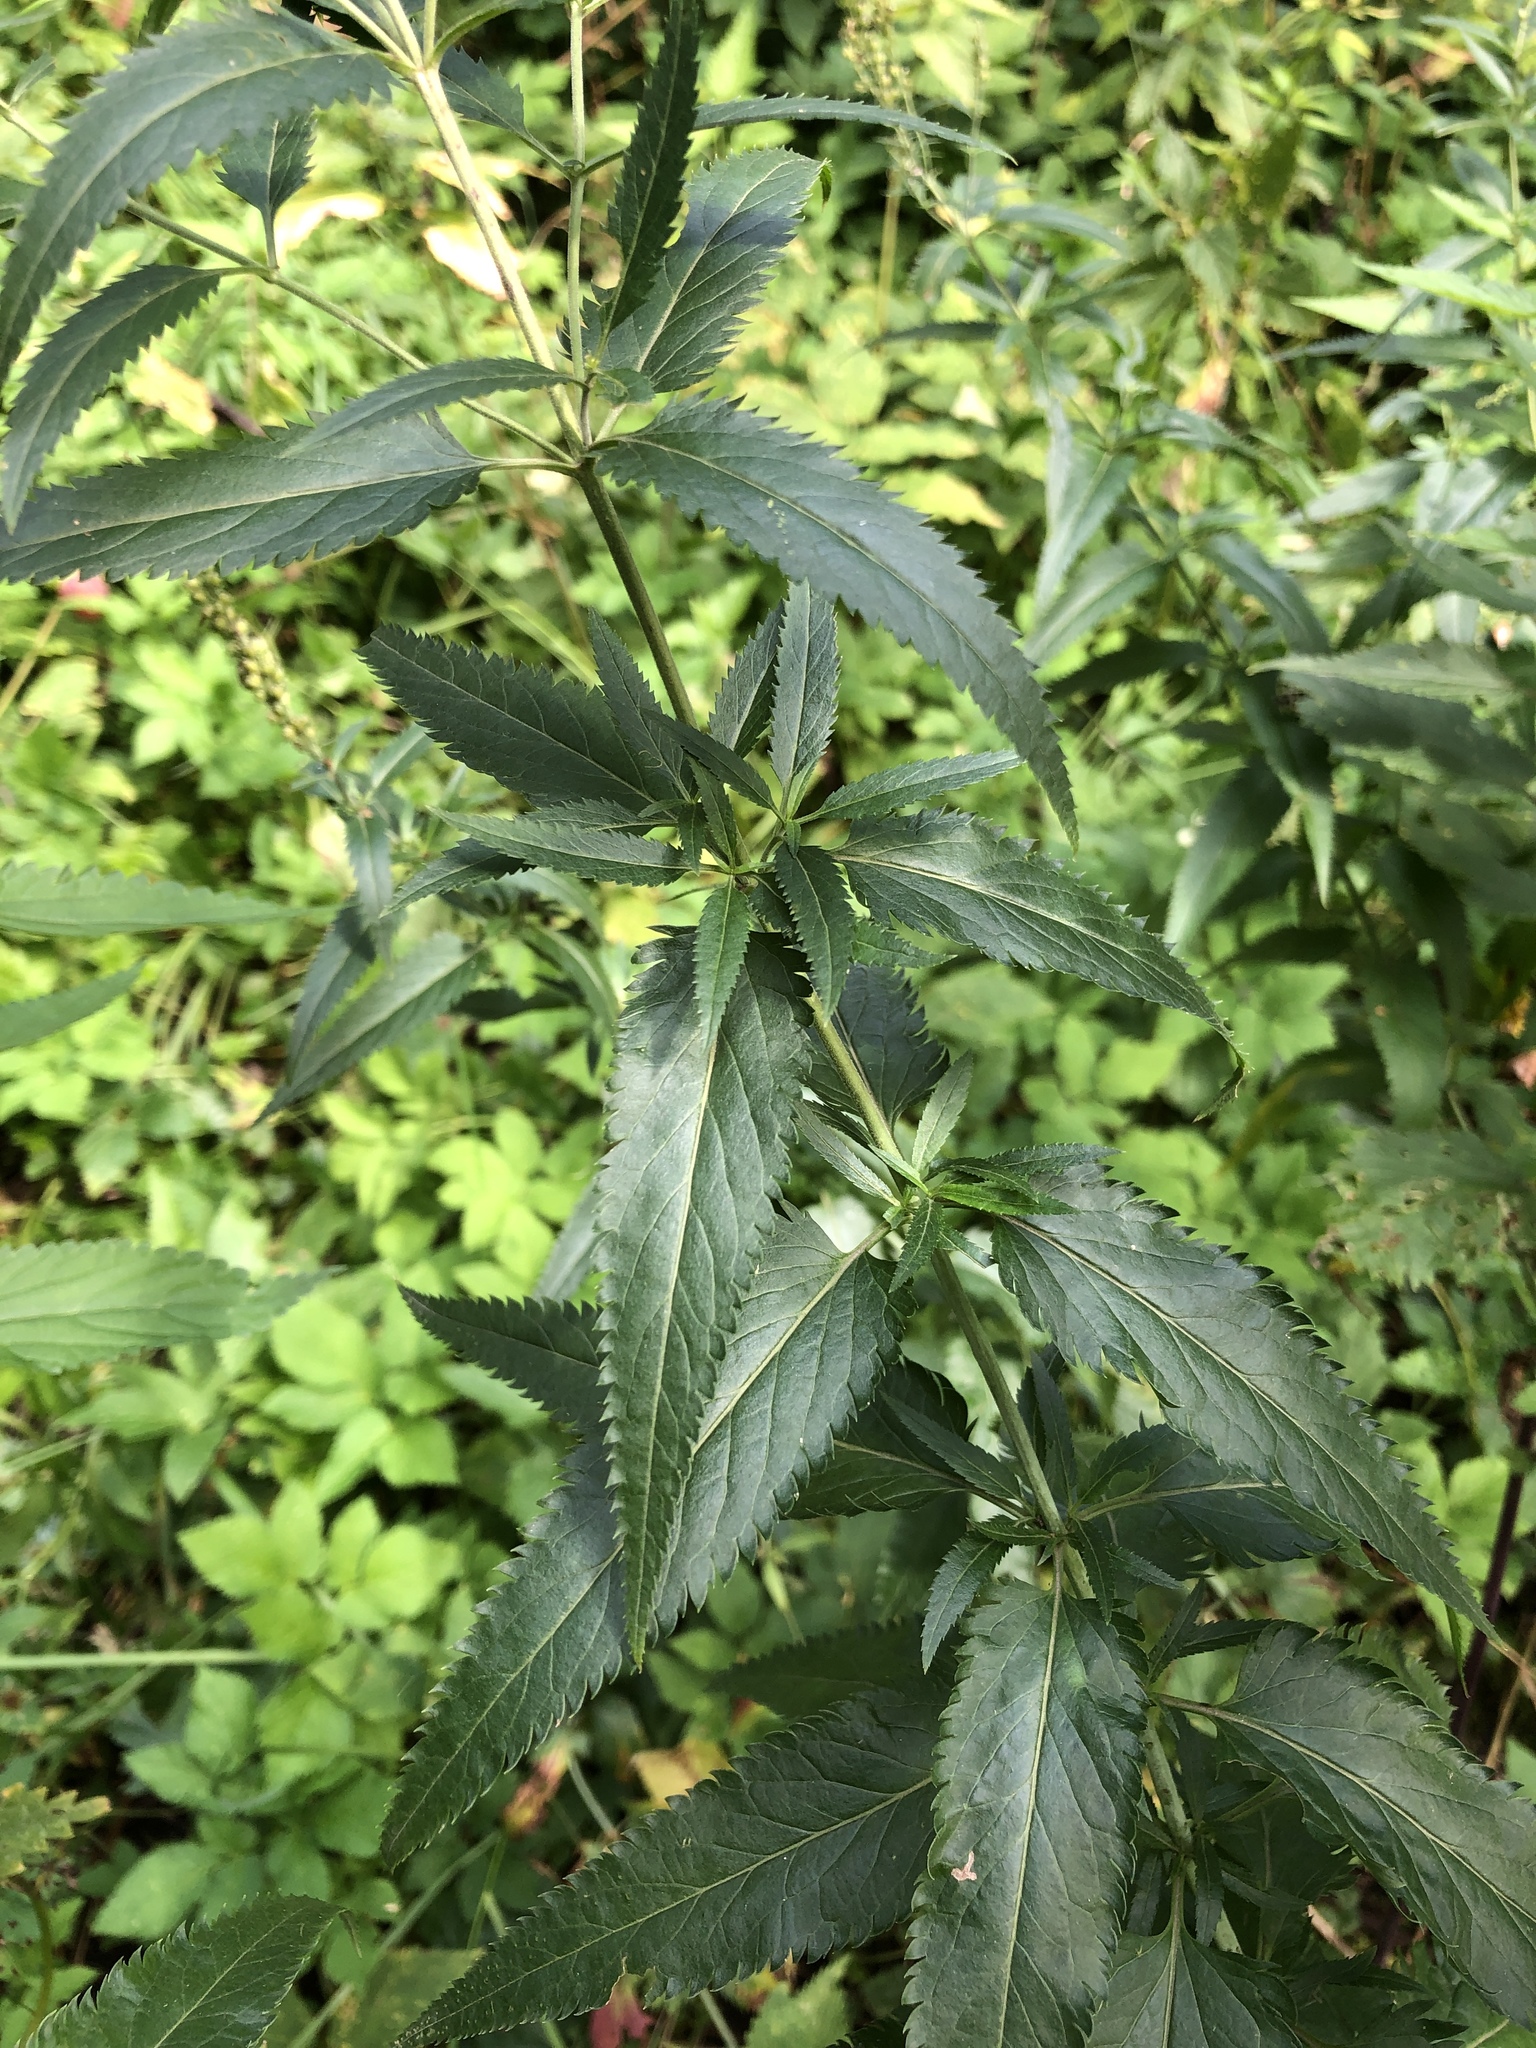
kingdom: Plantae
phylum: Tracheophyta
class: Magnoliopsida
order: Lamiales
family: Plantaginaceae
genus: Veronica
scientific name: Veronica longifolia
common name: Garden speedwell
